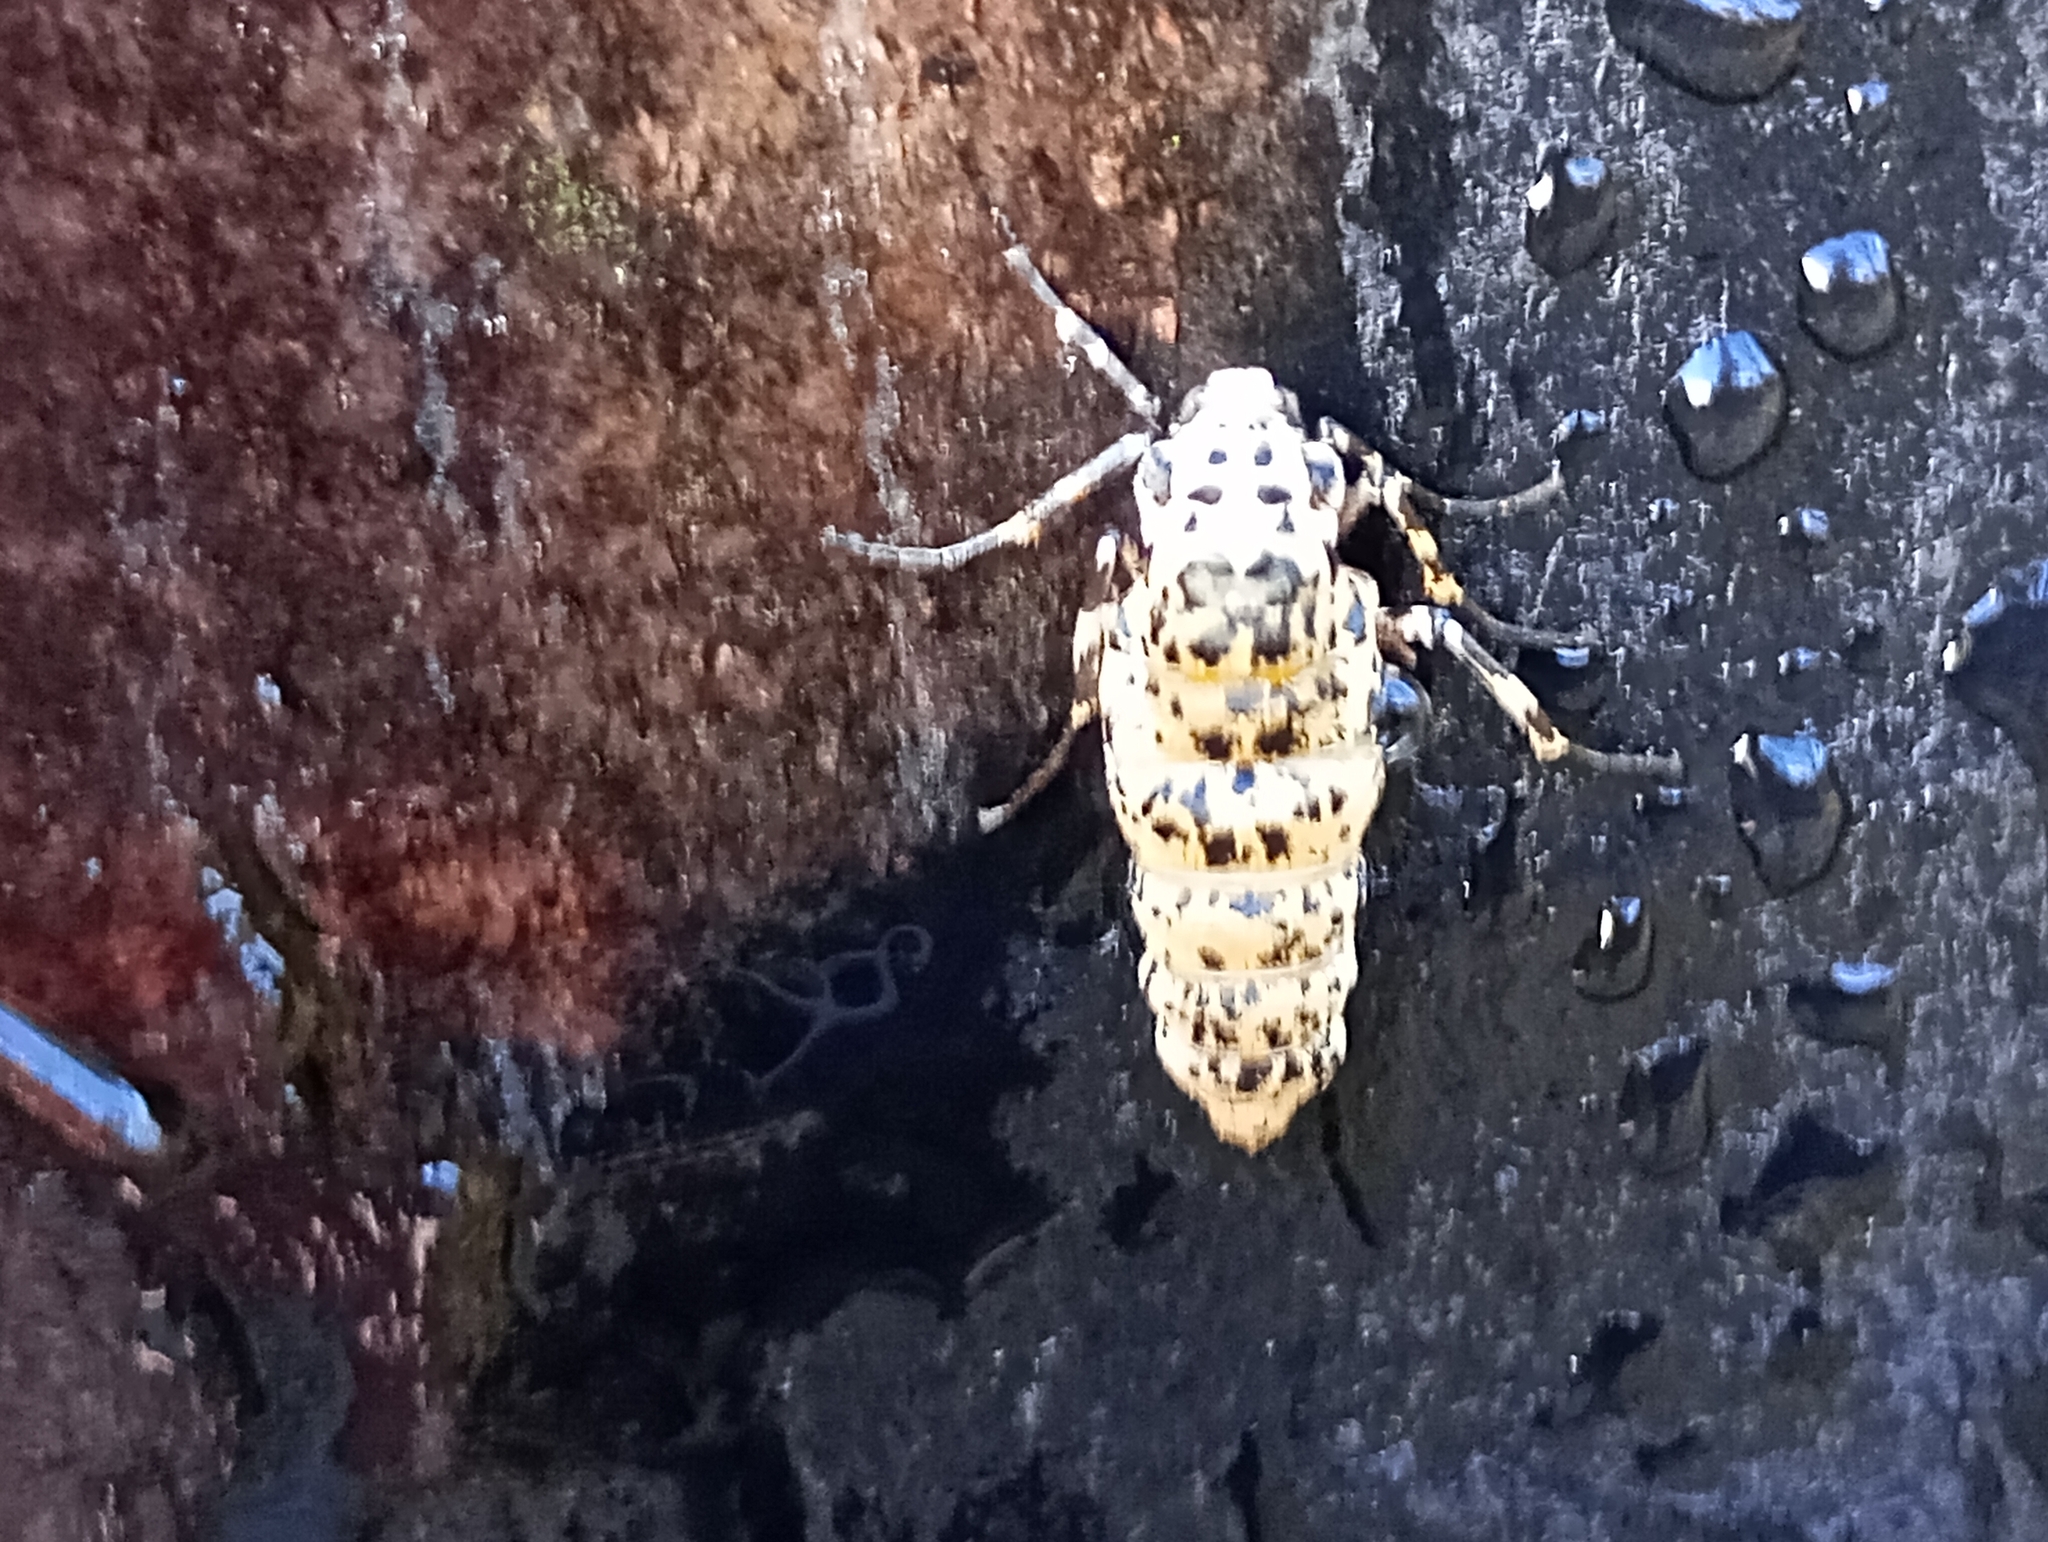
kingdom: Animalia
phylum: Arthropoda
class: Insecta
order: Lepidoptera
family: Geometridae
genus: Erannis
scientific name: Erannis defoliaria
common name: Mottled umber
